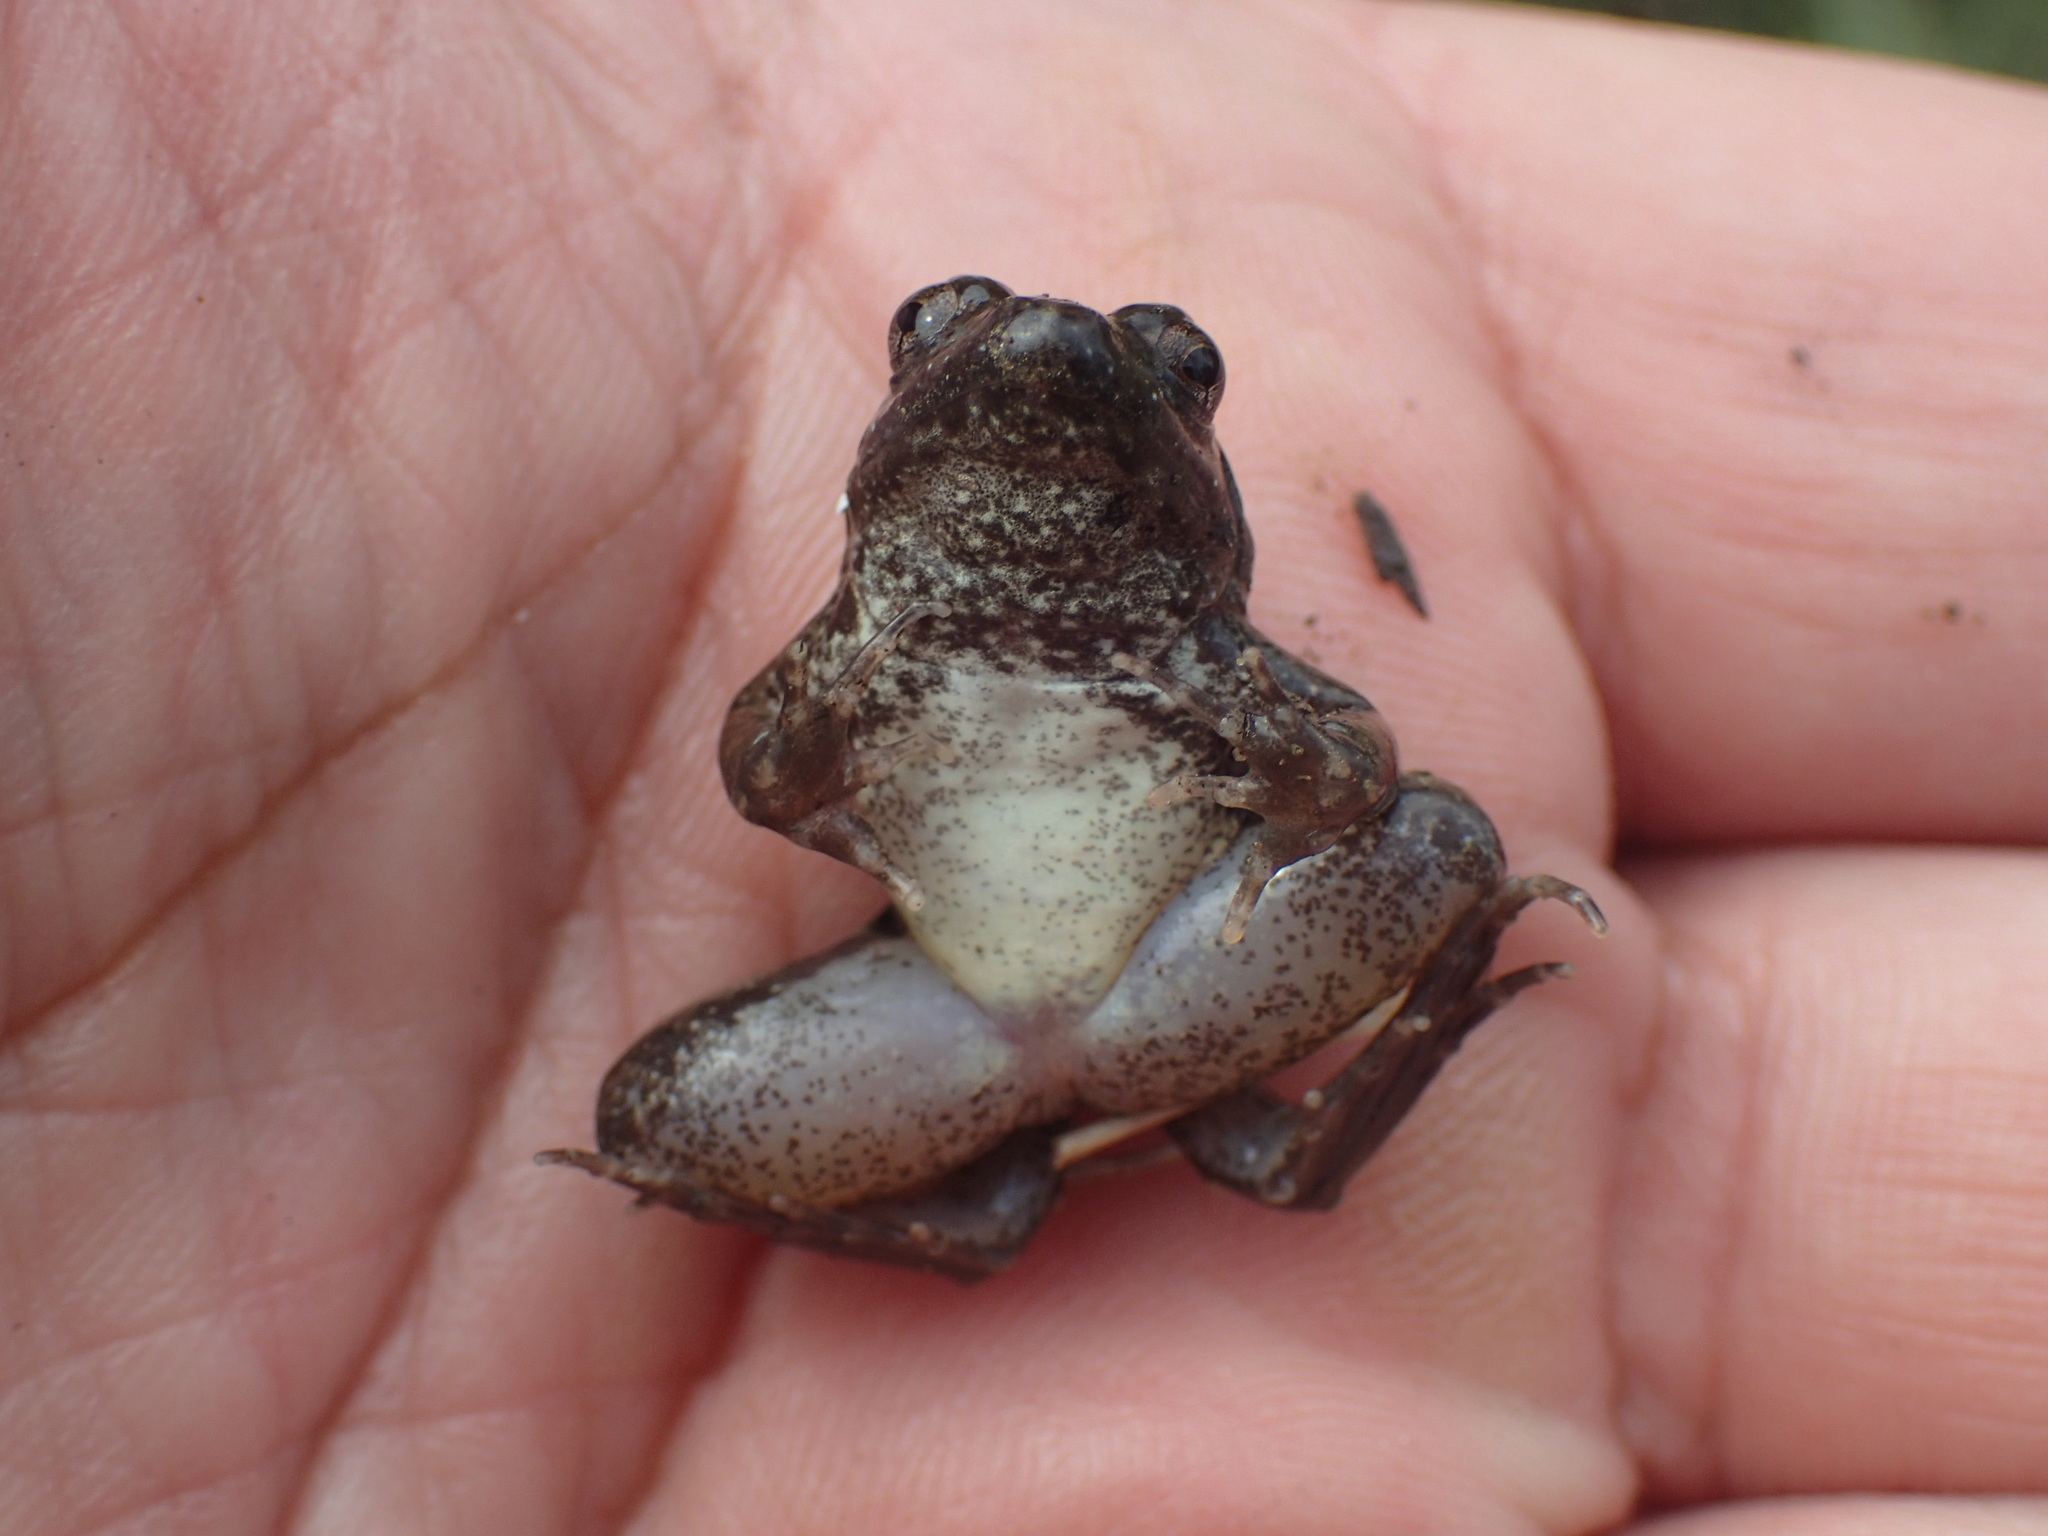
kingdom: Animalia
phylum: Chordata
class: Amphibia
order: Anura
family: Phrynobatrachidae
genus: Phrynobatrachus
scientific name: Phrynobatrachus natalensis
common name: Snoring puddle frog
